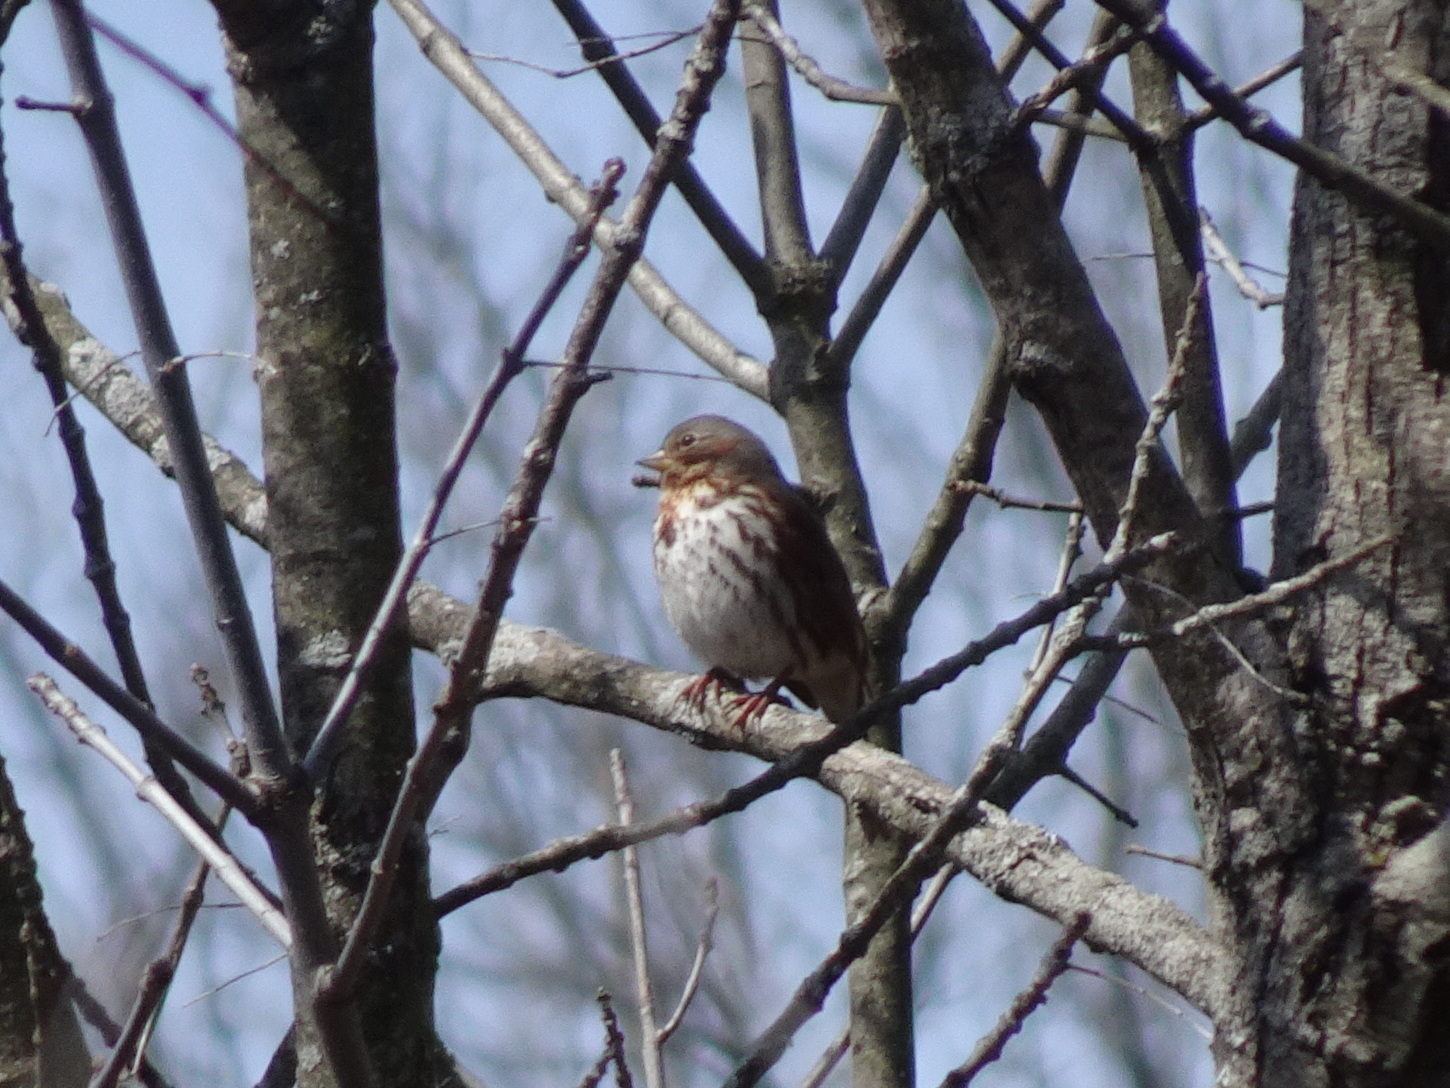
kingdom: Animalia
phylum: Chordata
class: Aves
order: Passeriformes
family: Passerellidae
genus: Passerella
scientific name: Passerella iliaca
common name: Fox sparrow
